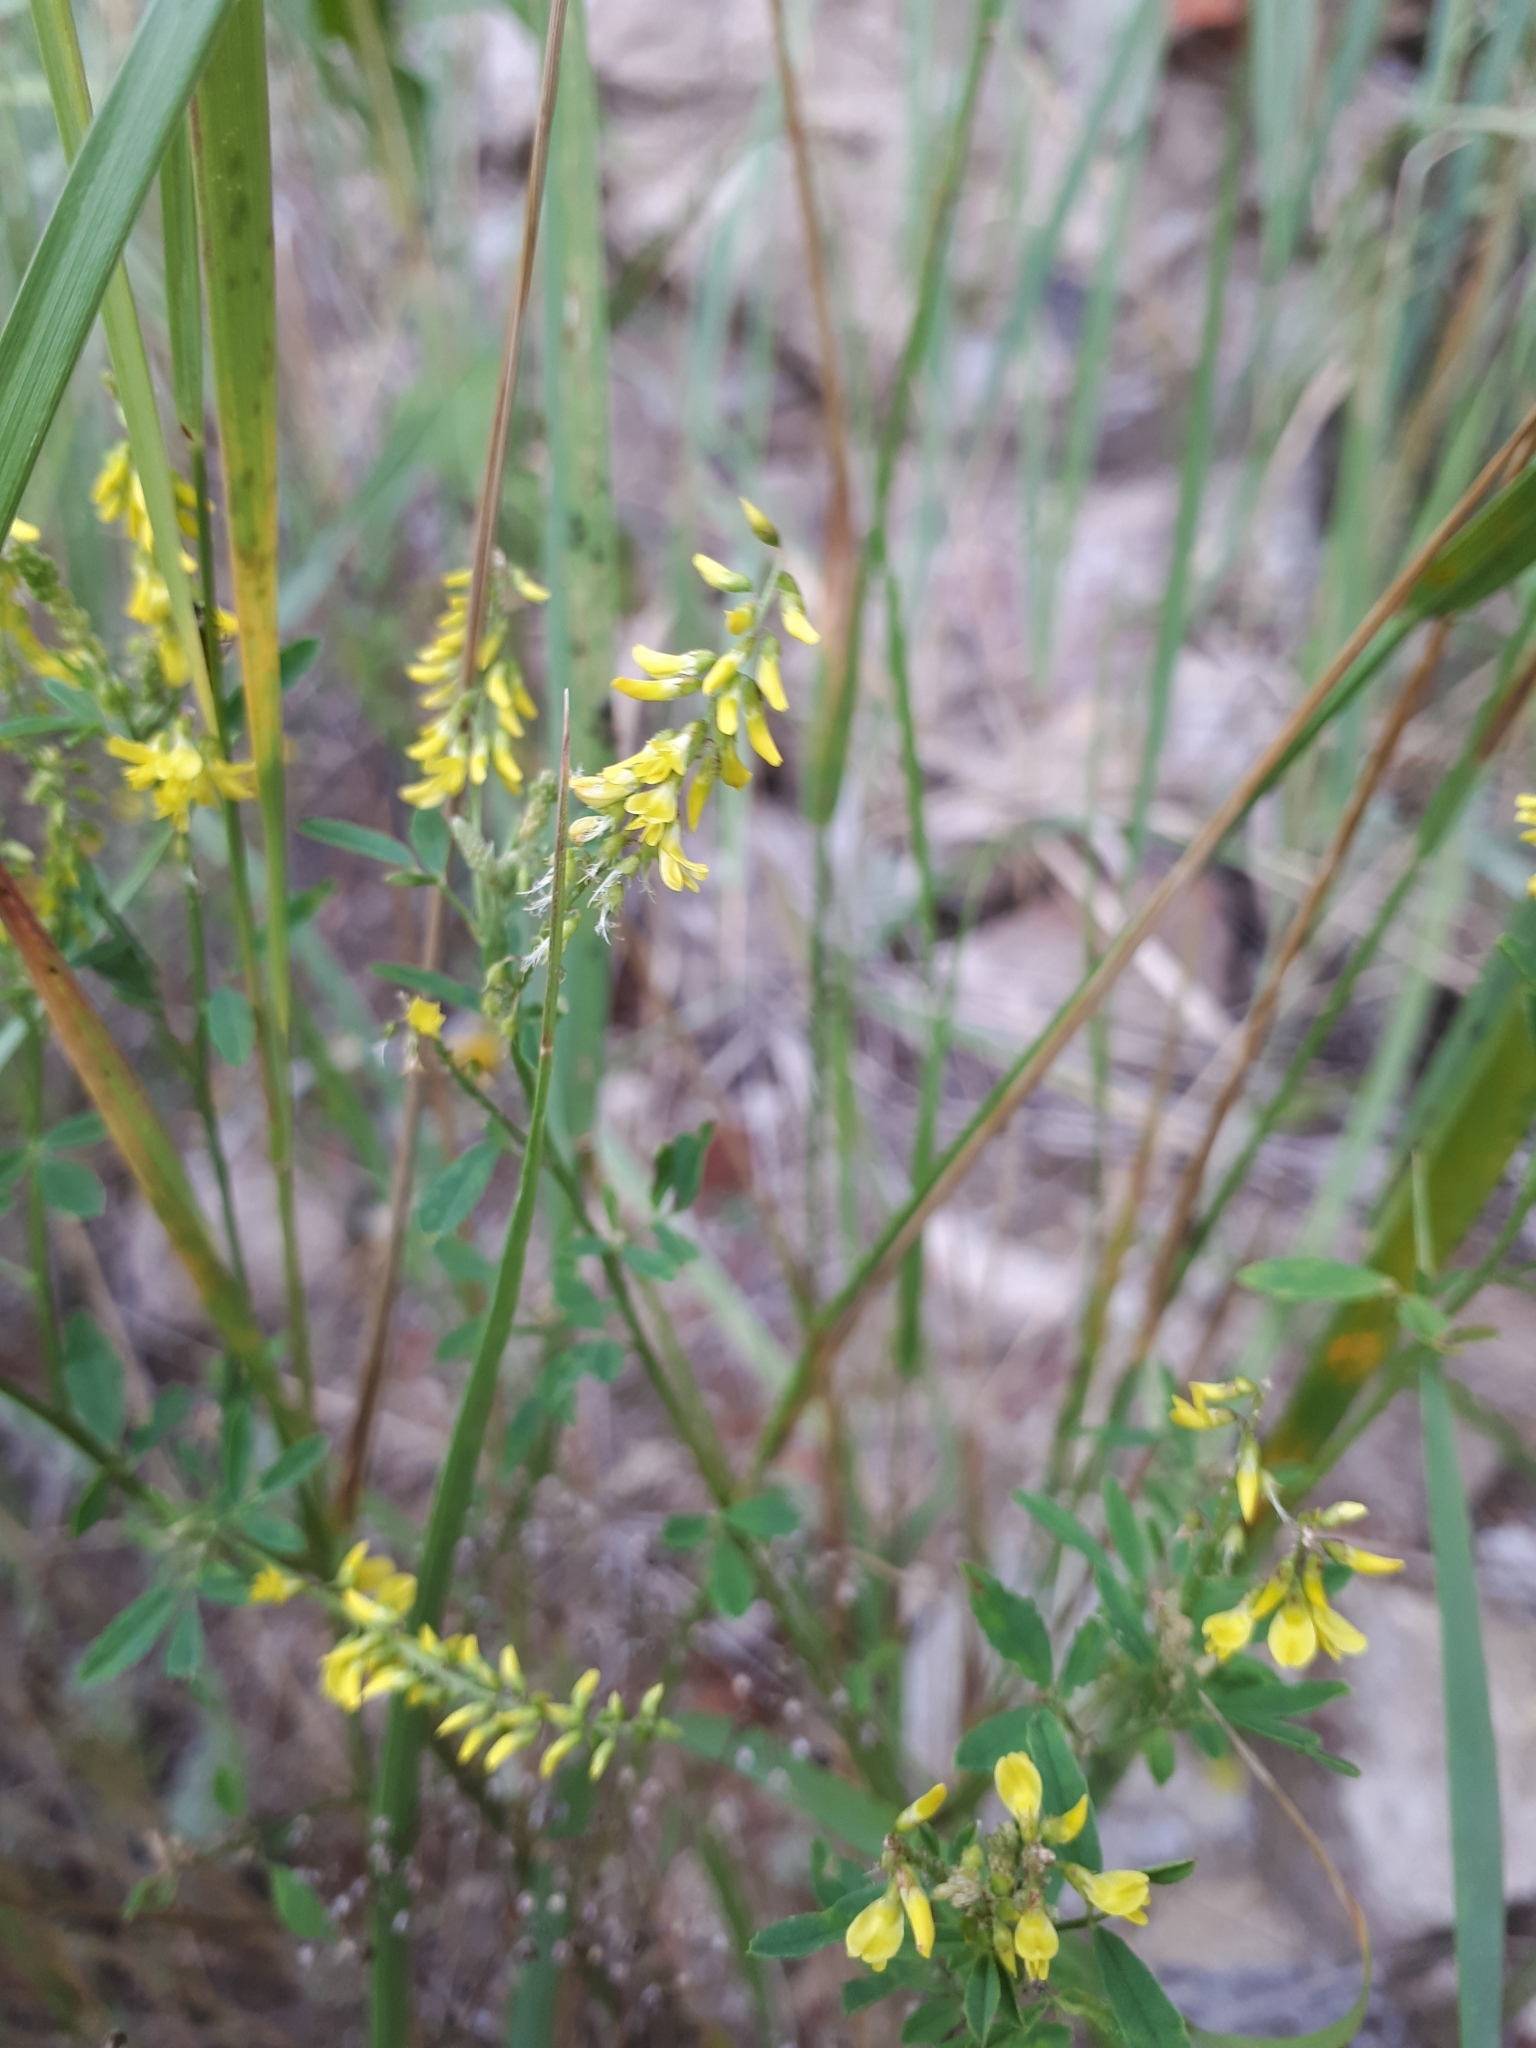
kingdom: Plantae
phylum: Tracheophyta
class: Magnoliopsida
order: Fabales
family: Fabaceae
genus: Melilotus
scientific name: Melilotus officinalis
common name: Sweetclover
